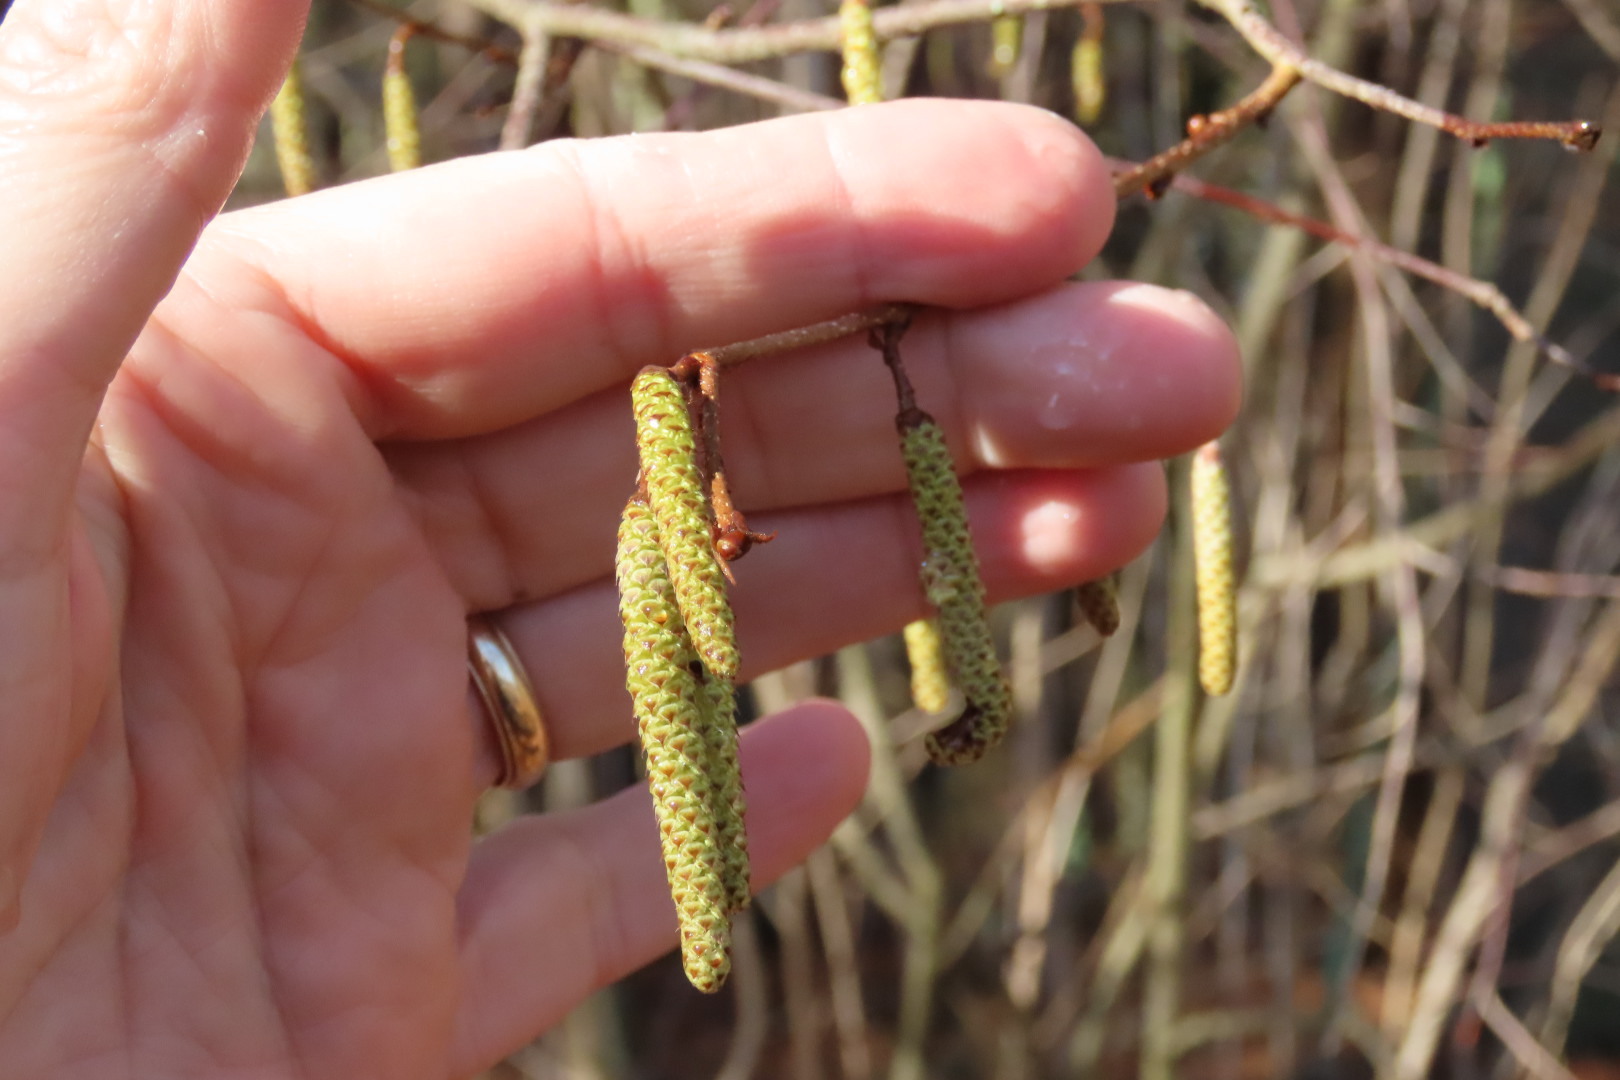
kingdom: Plantae
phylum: Tracheophyta
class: Magnoliopsida
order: Fagales
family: Betulaceae
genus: Corylus
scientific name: Corylus americana
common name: American hazel
